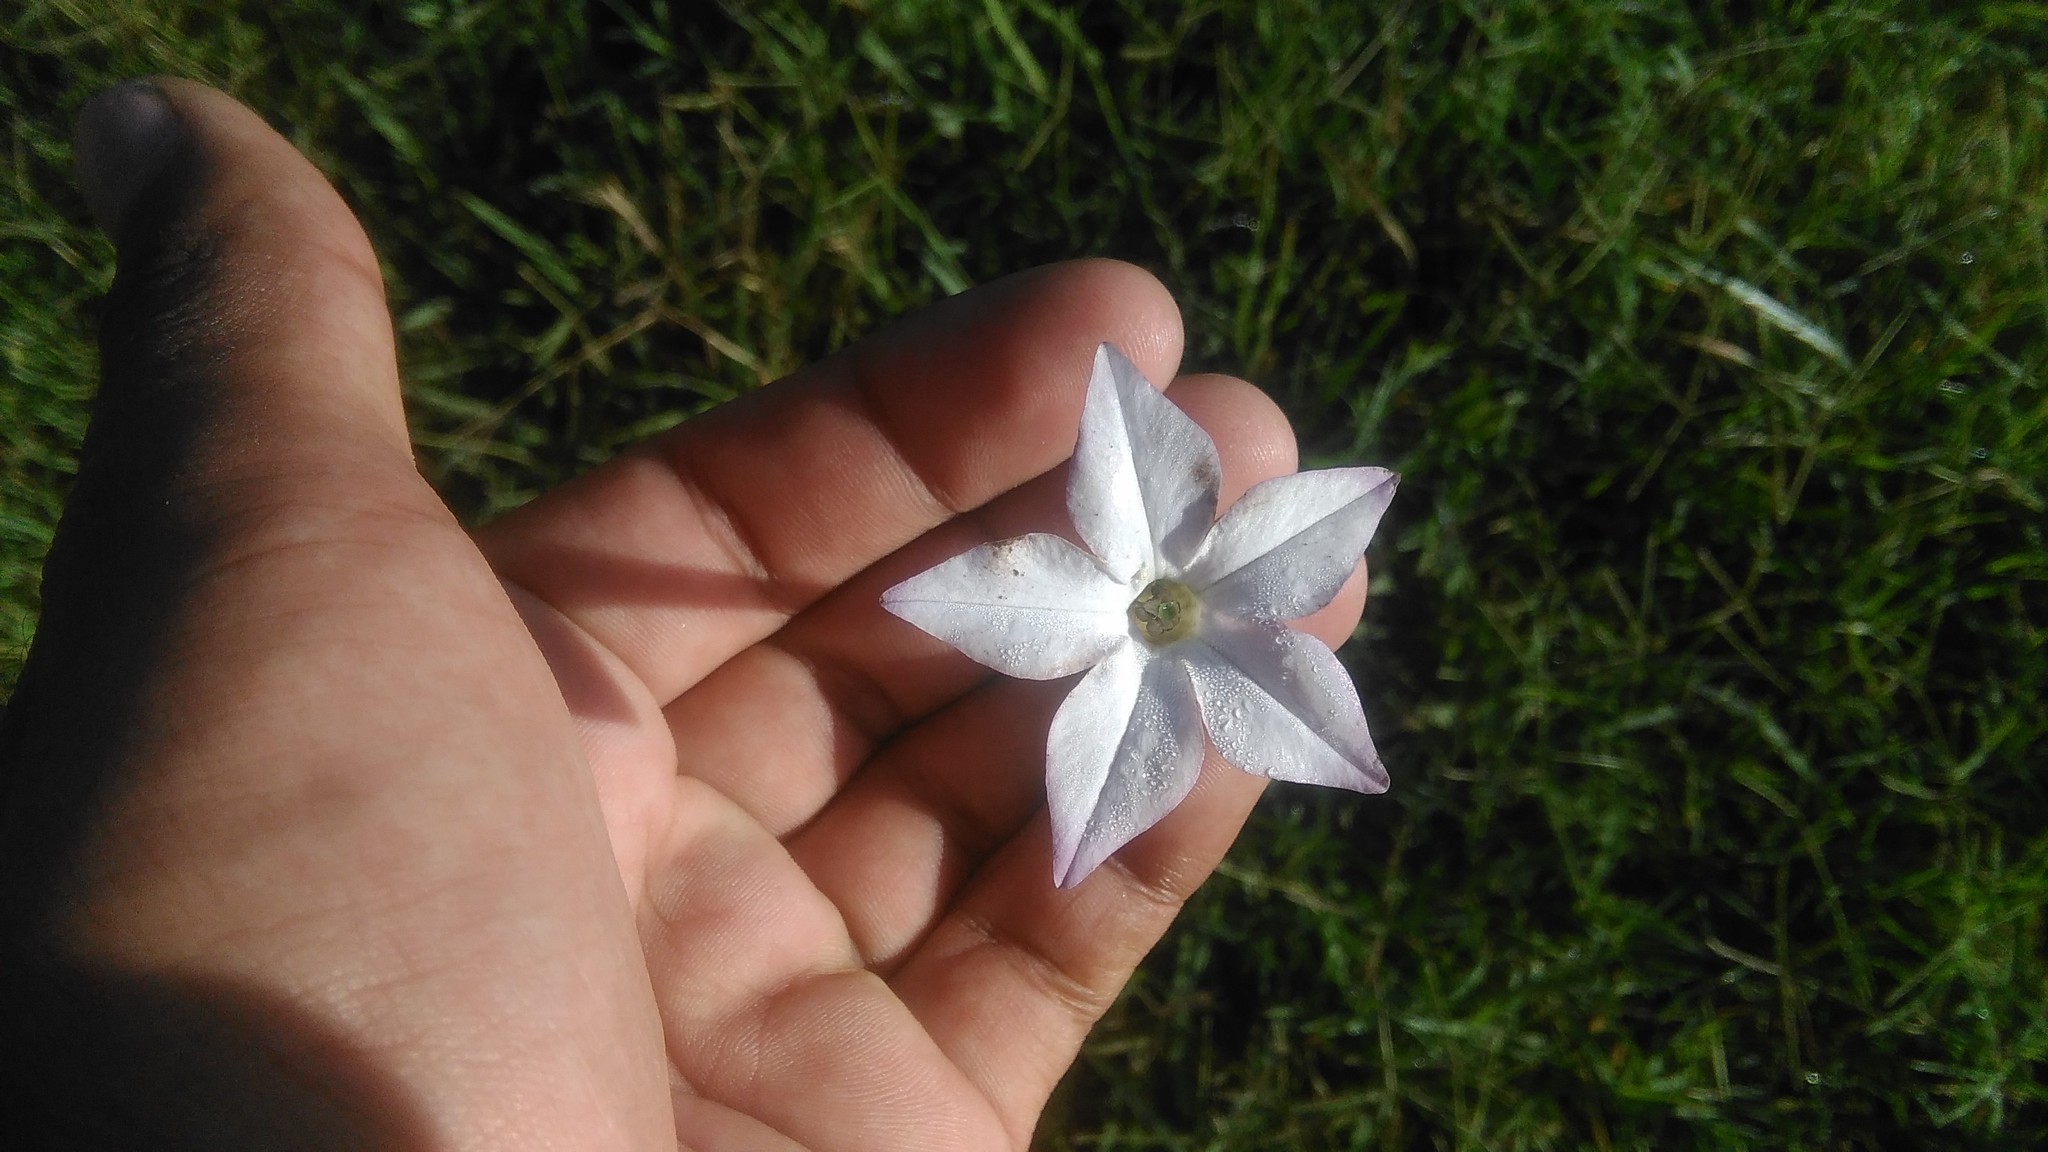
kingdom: Plantae
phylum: Tracheophyta
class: Magnoliopsida
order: Solanales
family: Solanaceae
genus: Nicotiana
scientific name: Nicotiana longiflora
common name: Long-flowered tobacco
